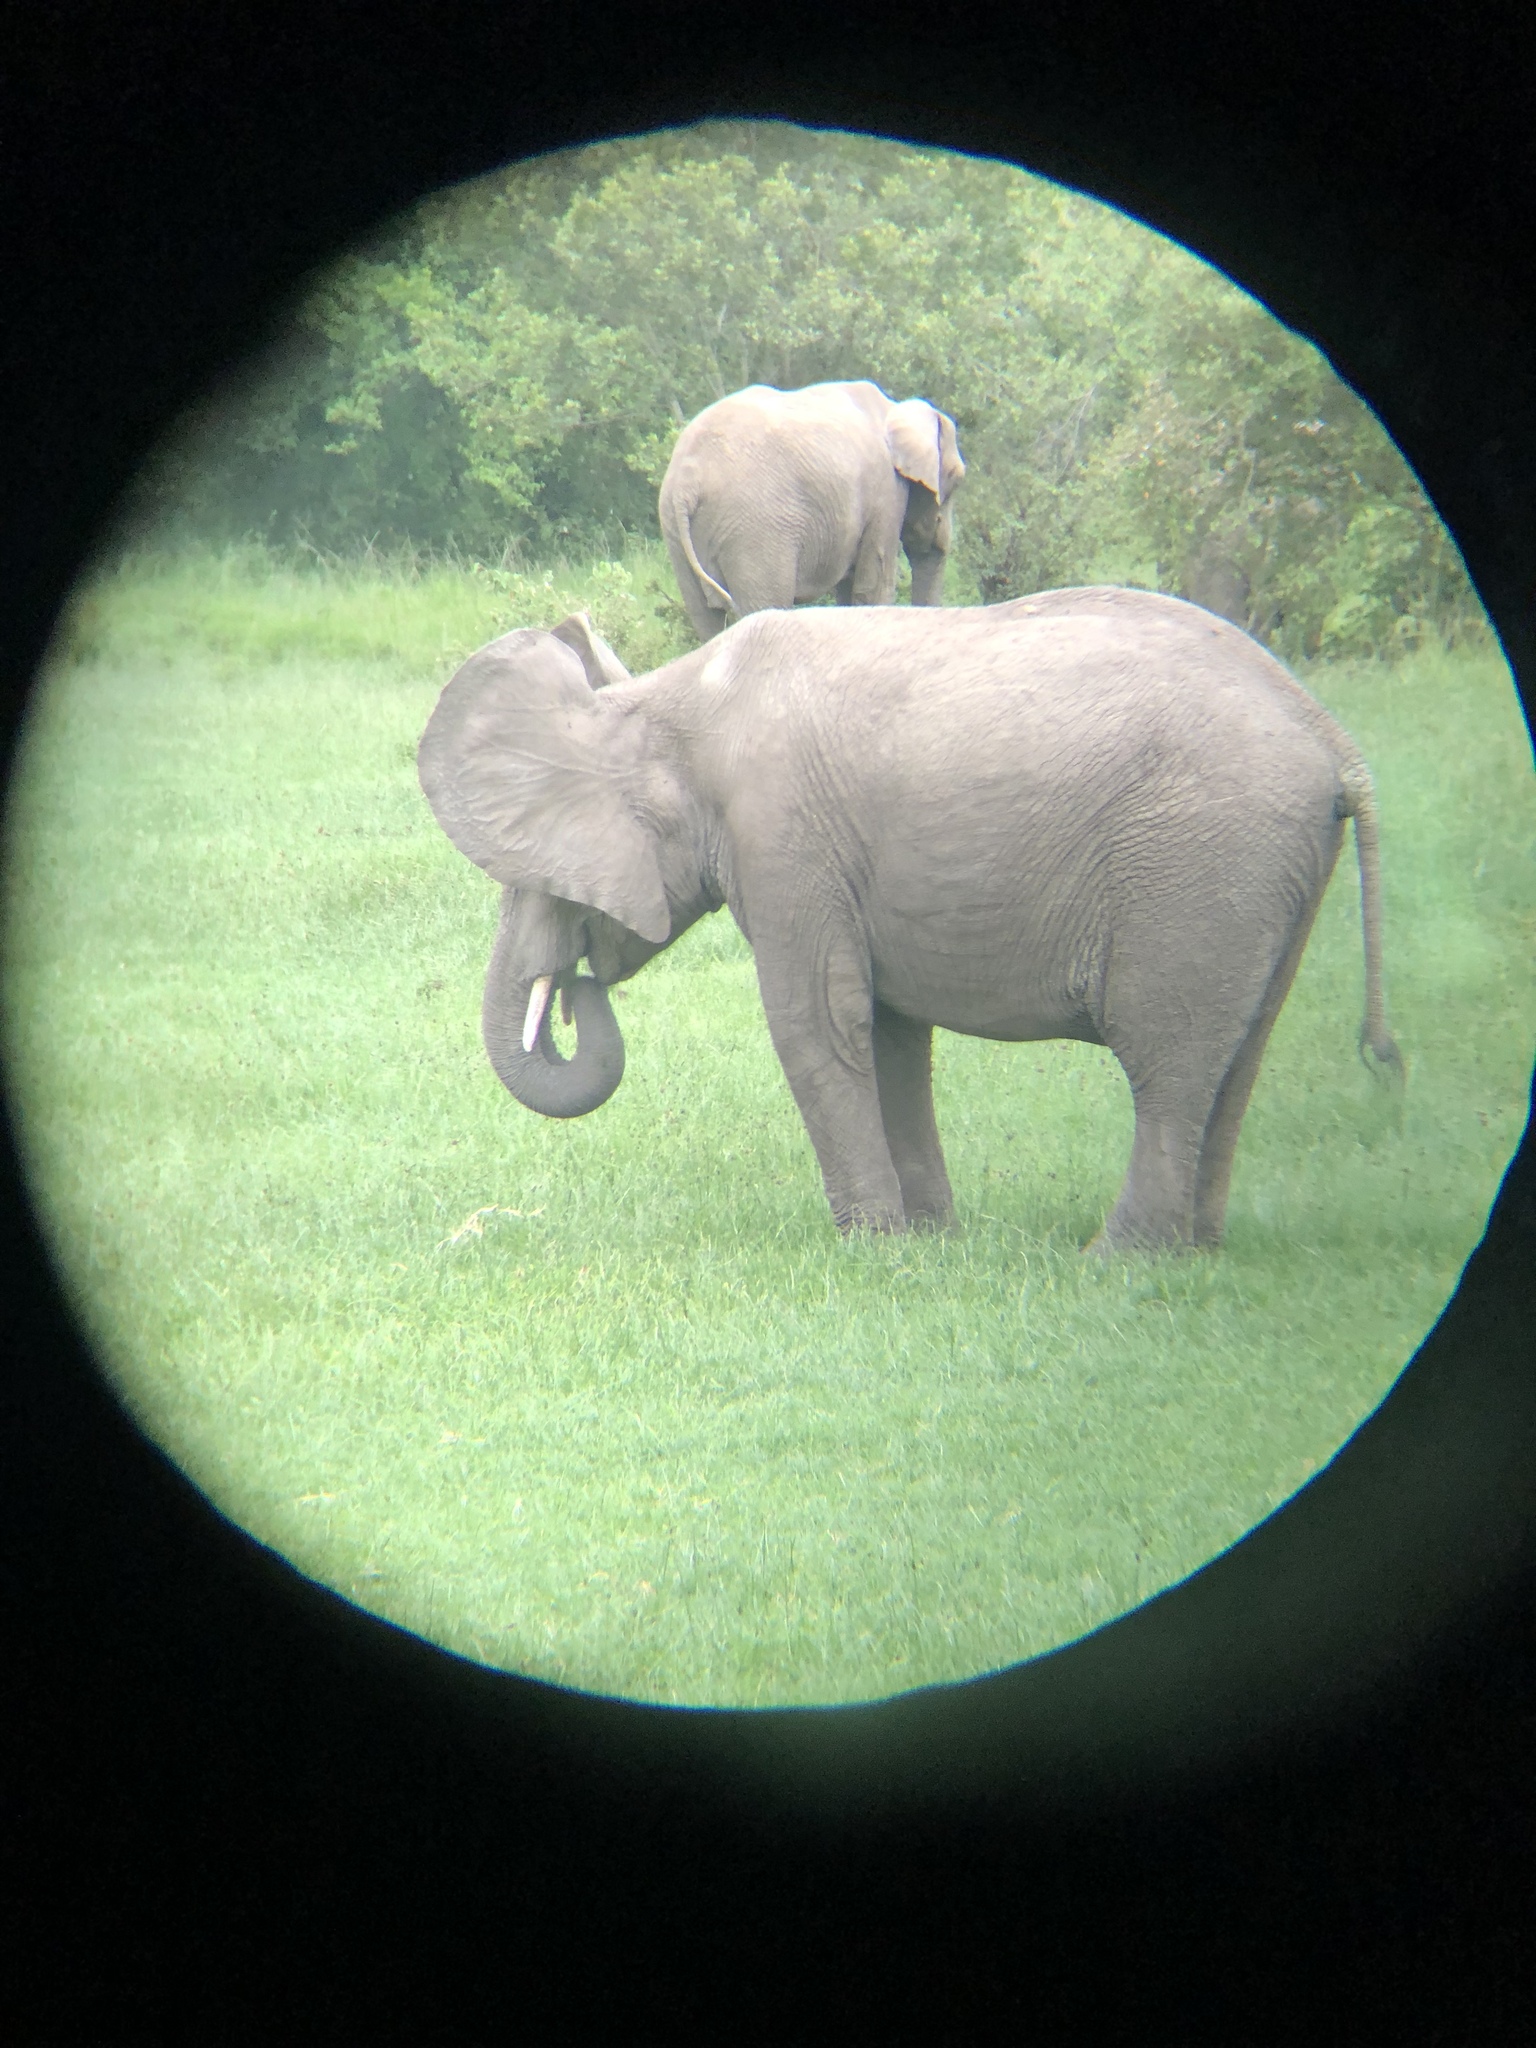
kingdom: Animalia
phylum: Chordata
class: Mammalia
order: Proboscidea
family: Elephantidae
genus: Loxodonta
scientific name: Loxodonta africana
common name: African elephant
